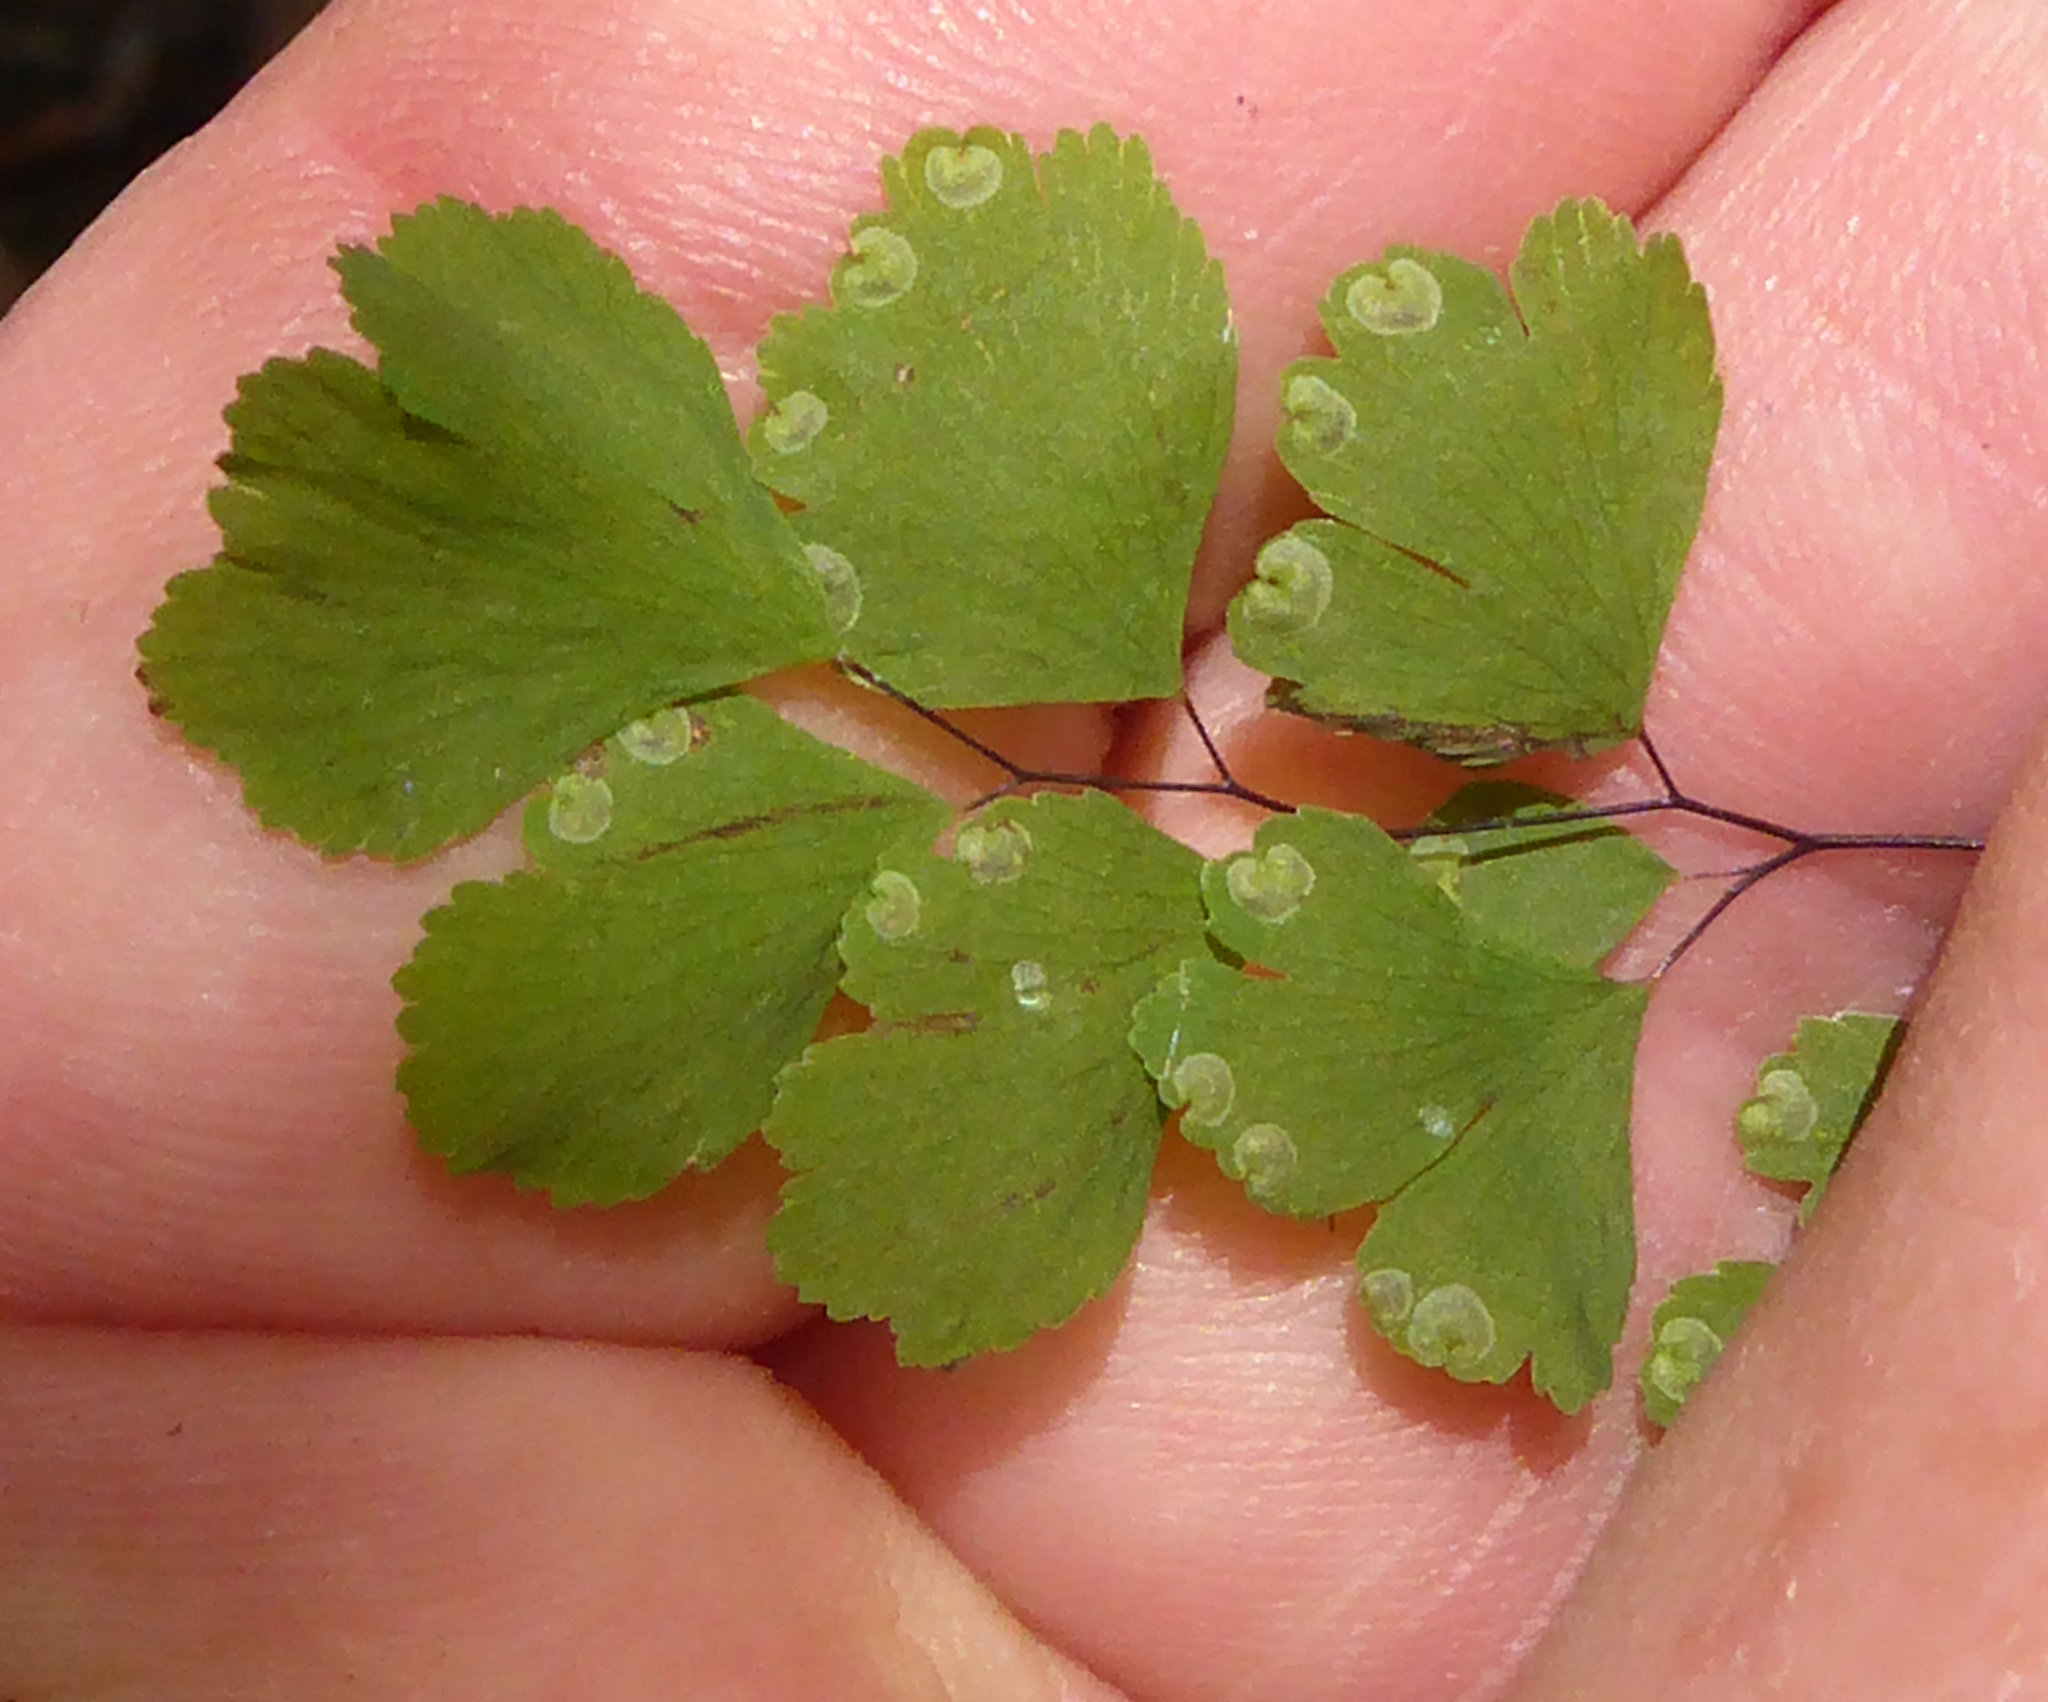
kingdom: Plantae
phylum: Tracheophyta
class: Polypodiopsida
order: Polypodiales
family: Pteridaceae
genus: Adiantum
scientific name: Adiantum raddianum
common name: Delta maidenhair fern
